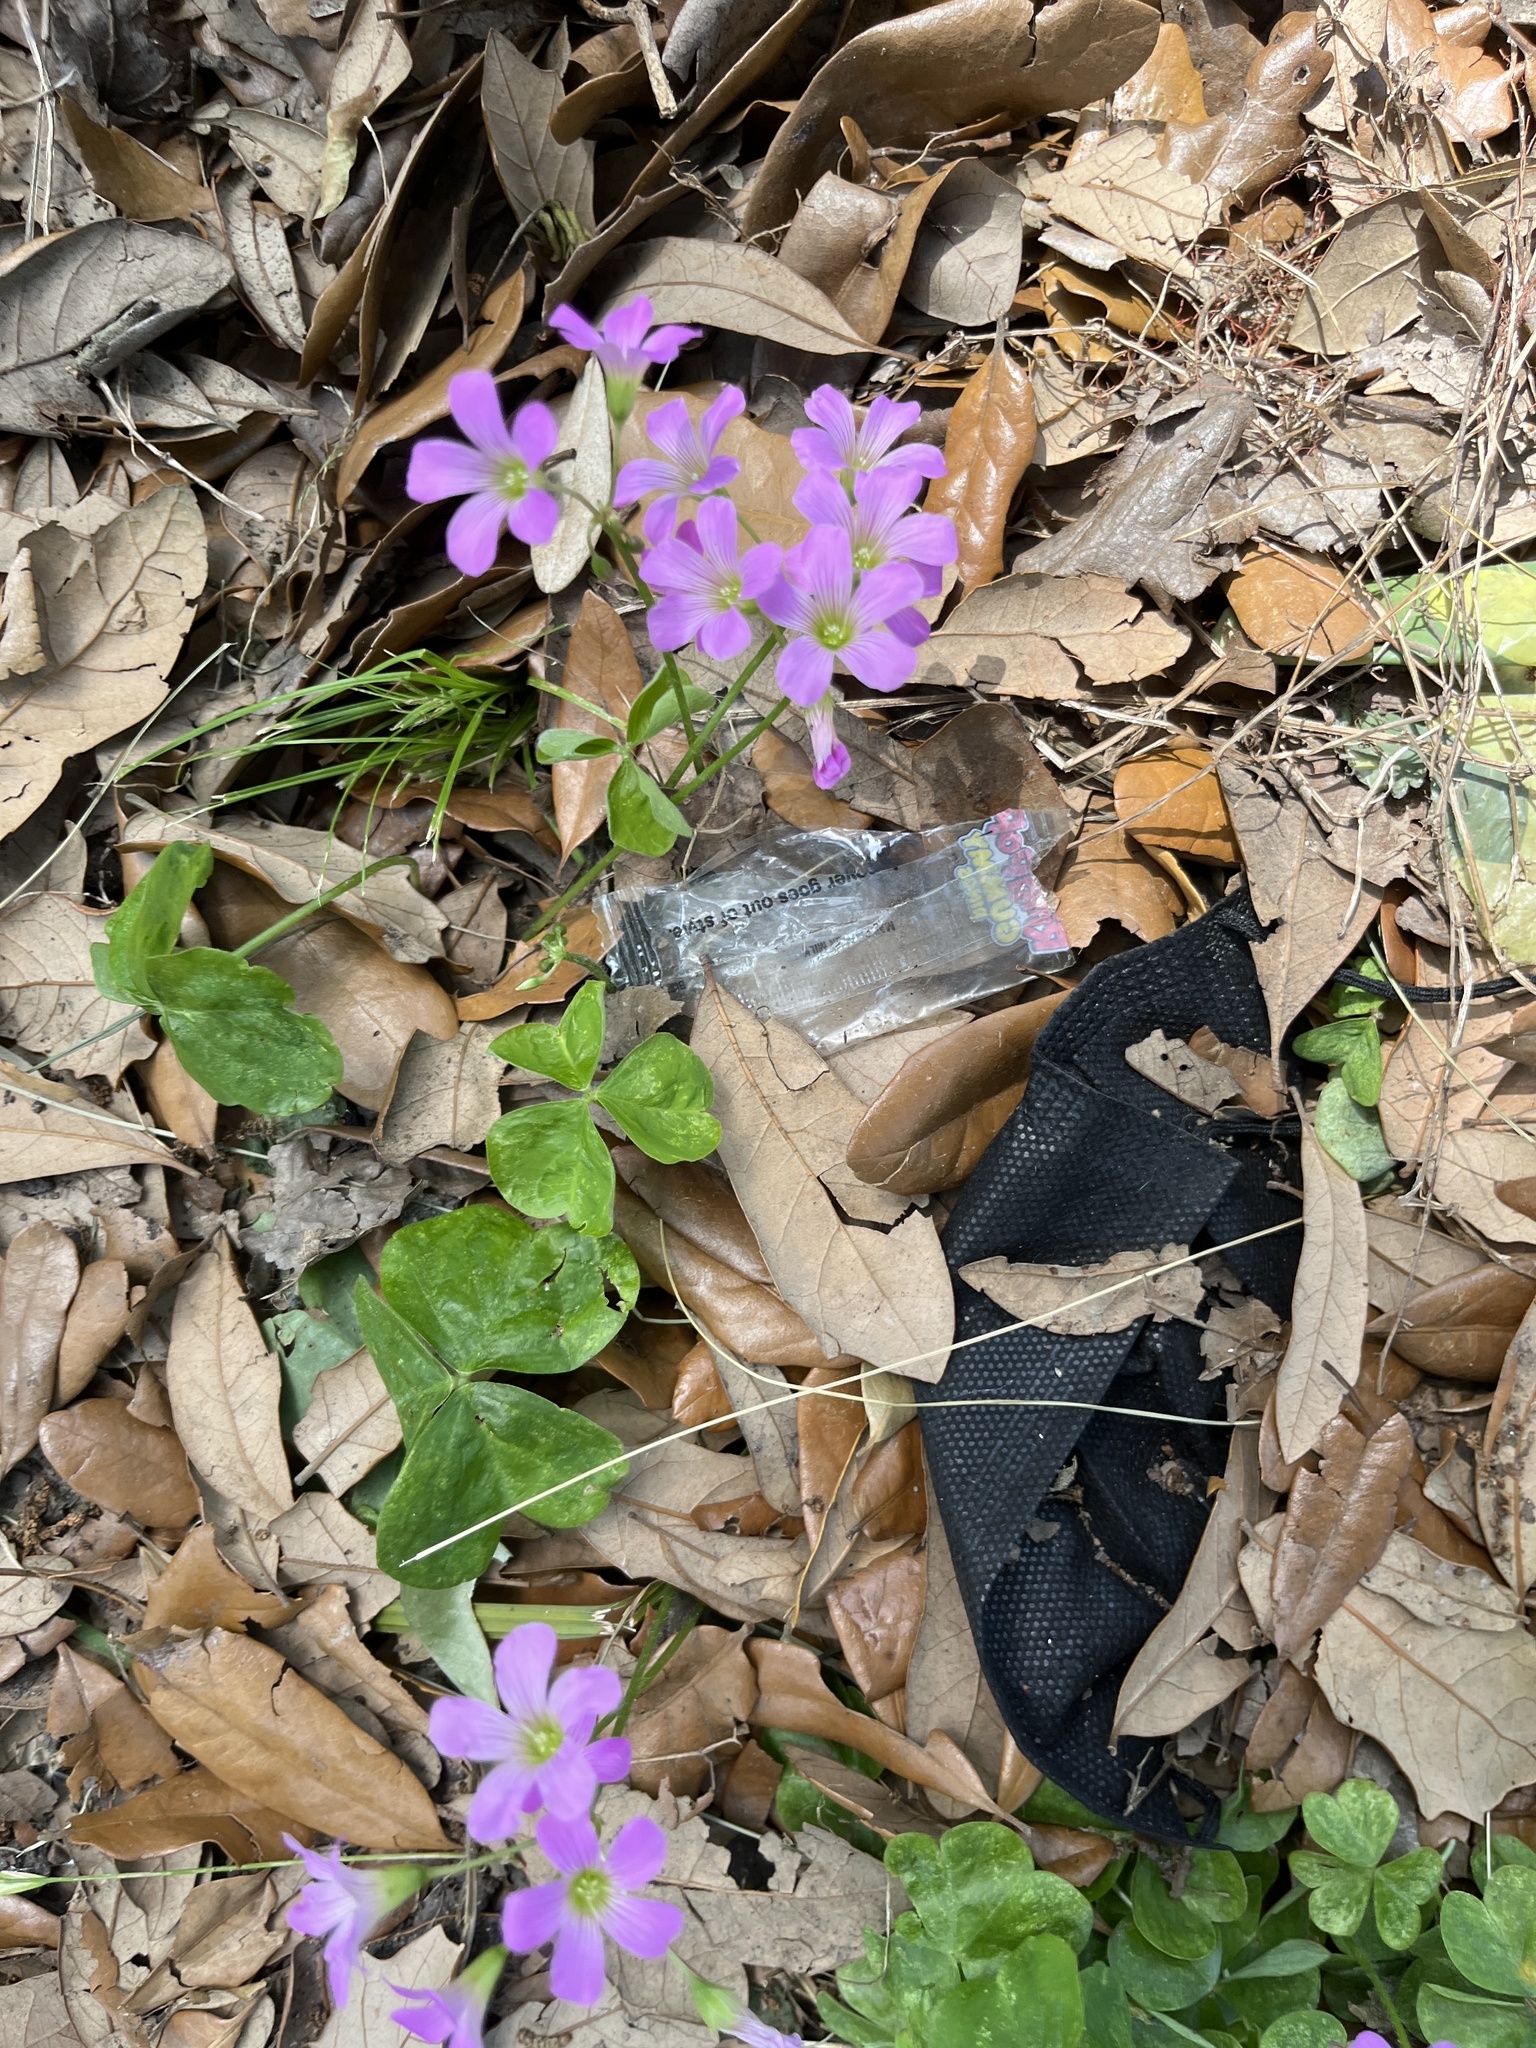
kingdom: Plantae
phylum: Tracheophyta
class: Magnoliopsida
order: Oxalidales
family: Oxalidaceae
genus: Oxalis
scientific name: Oxalis debilis
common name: Large-flowered pink-sorrel
